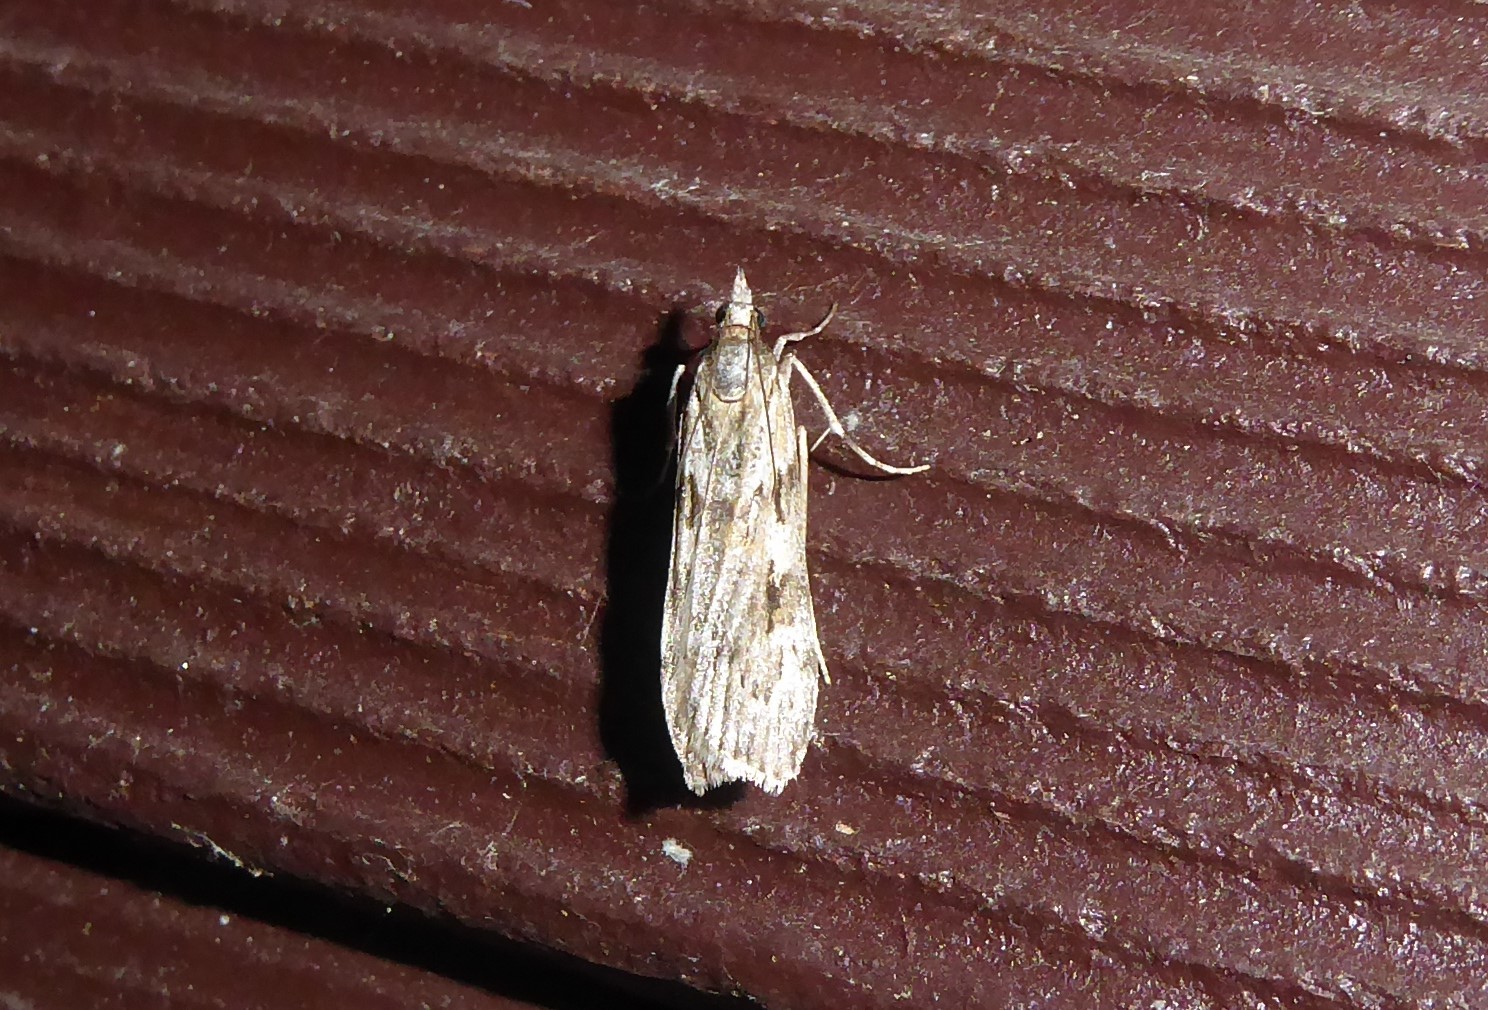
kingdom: Animalia
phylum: Arthropoda
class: Insecta
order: Lepidoptera
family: Crambidae
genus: Scoparia
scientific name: Scoparia halopis
